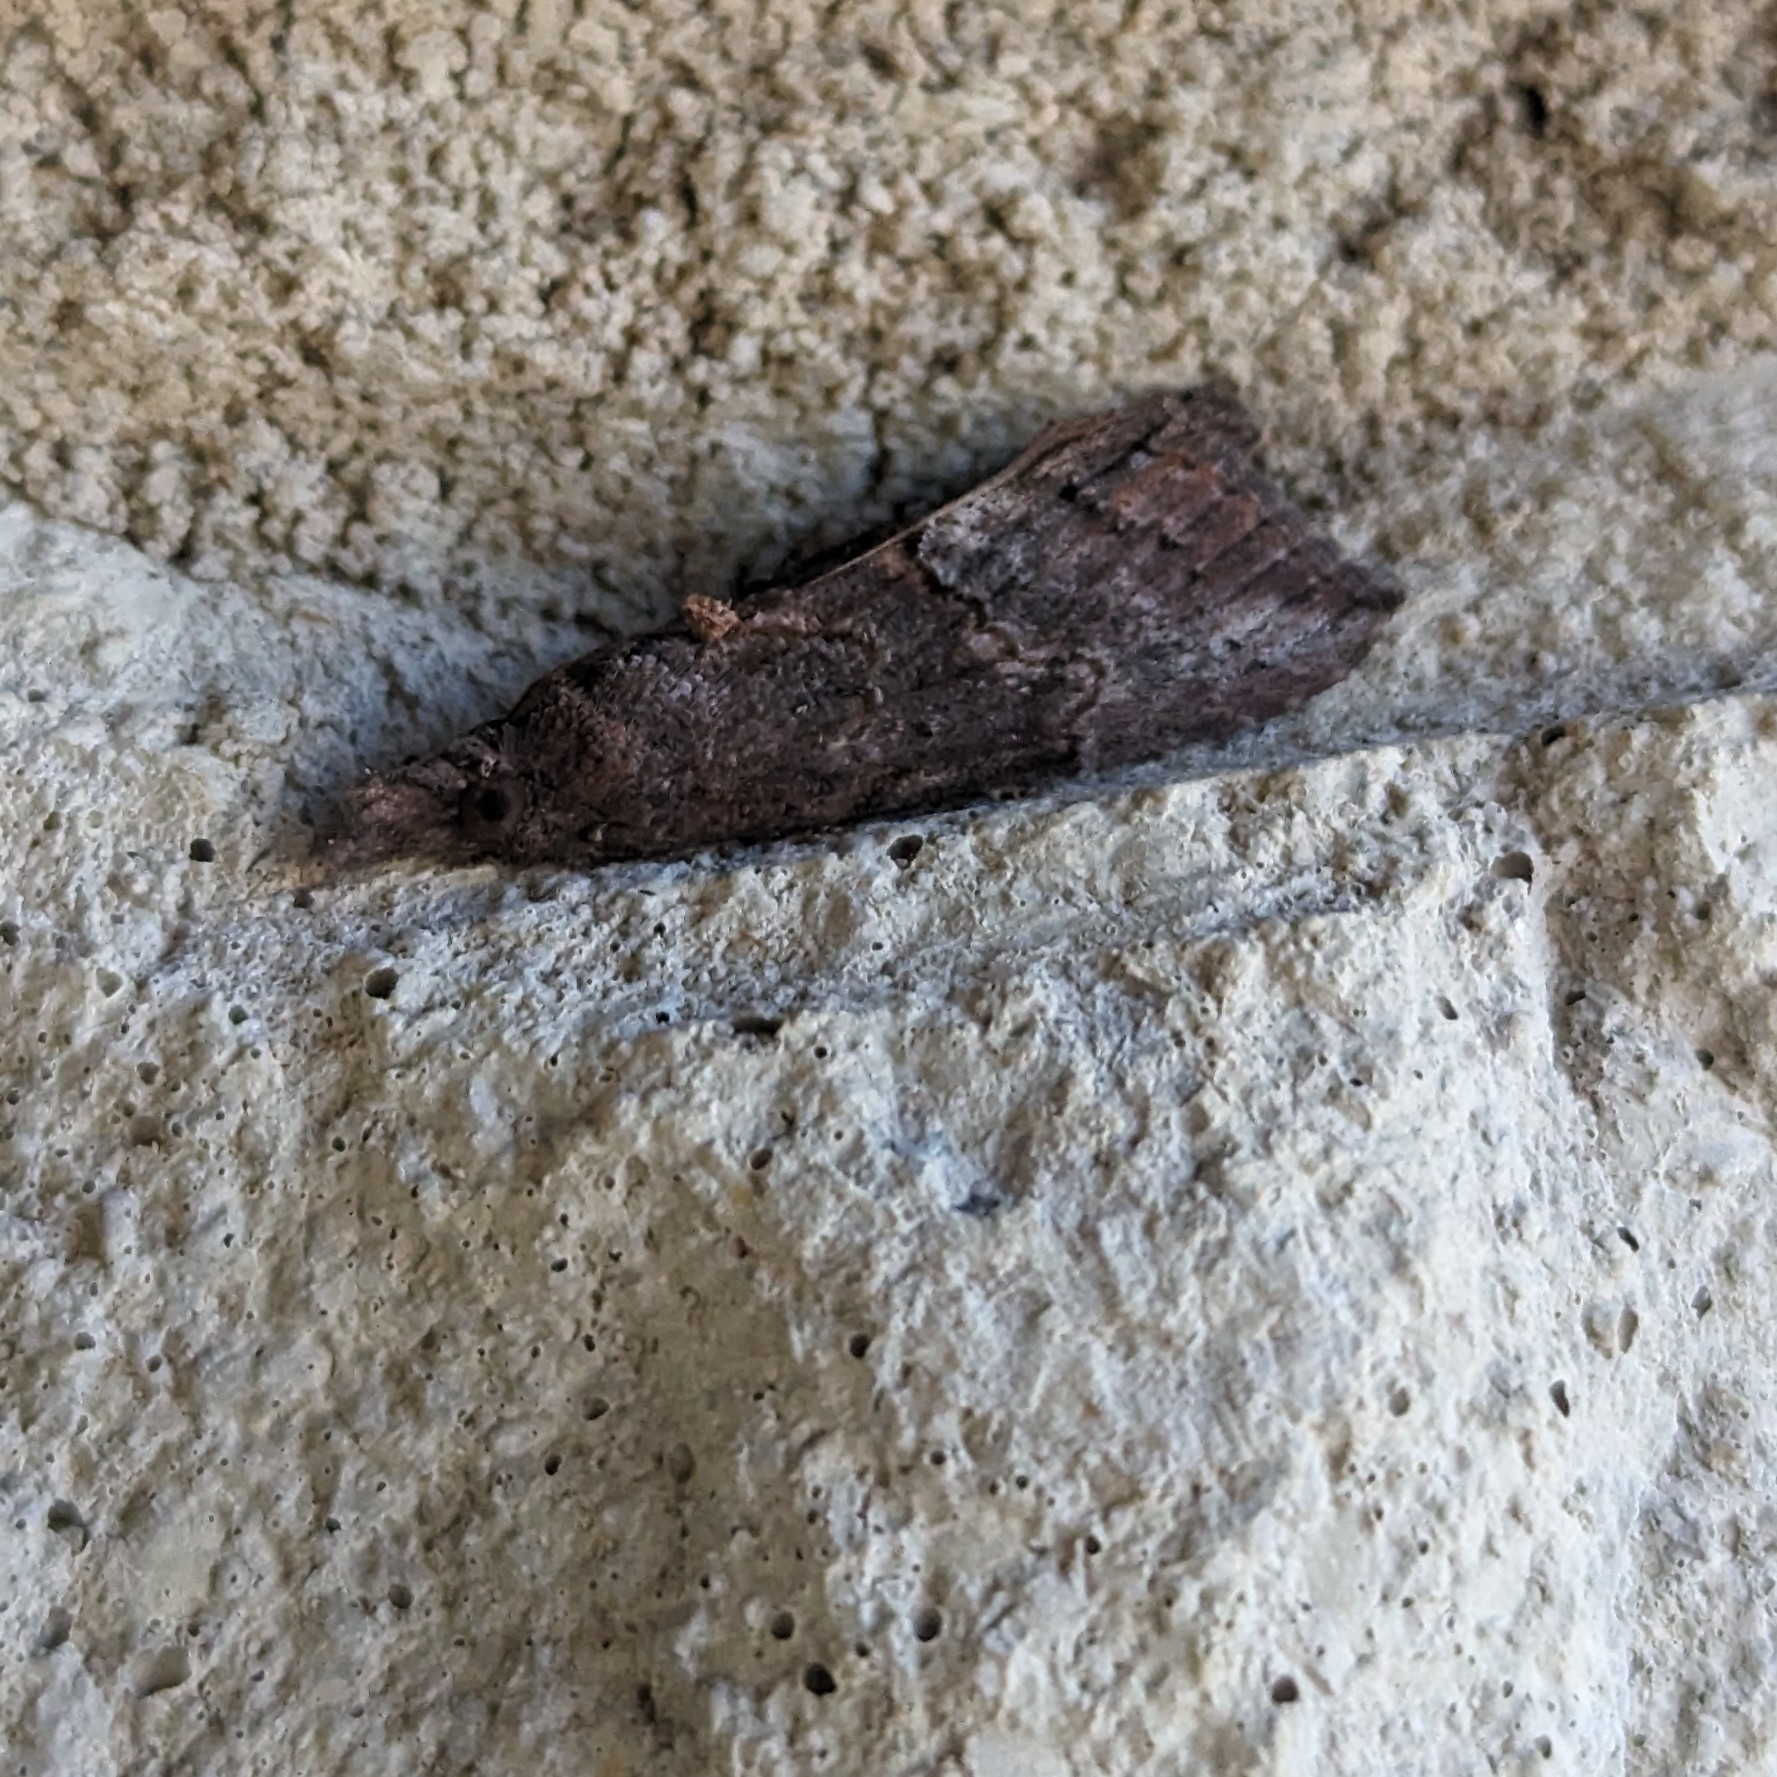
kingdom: Animalia
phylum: Arthropoda
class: Insecta
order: Lepidoptera
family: Erebidae
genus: Hypena
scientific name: Hypena scabra
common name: Green cloverworm
